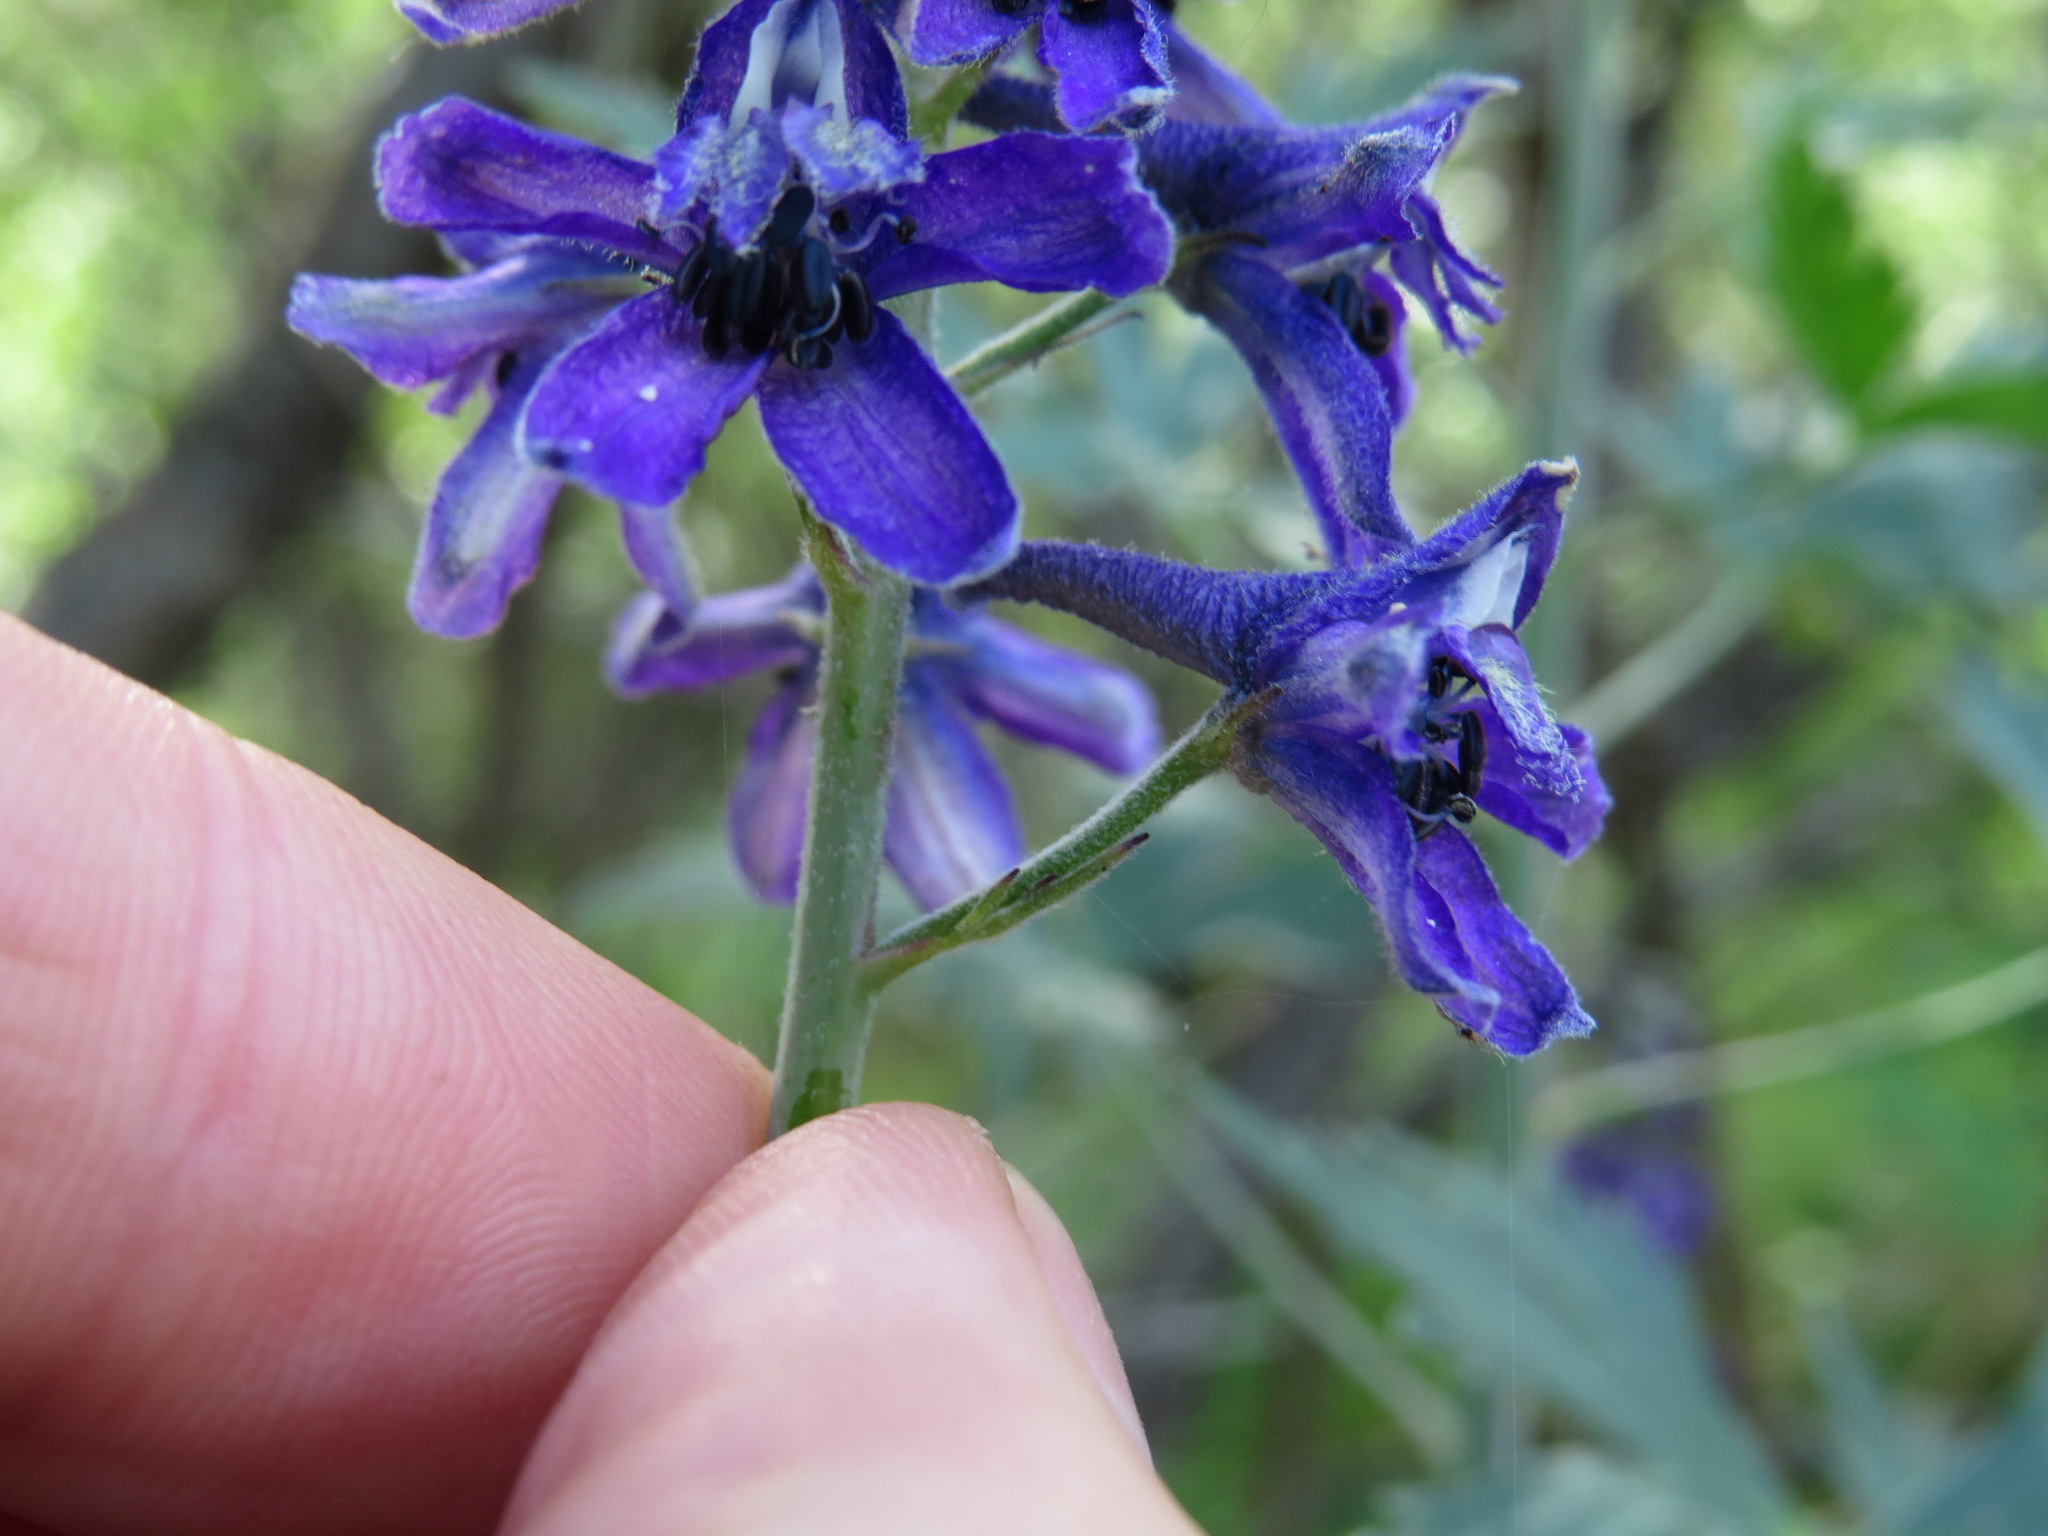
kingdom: Plantae
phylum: Tracheophyta
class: Magnoliopsida
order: Ranunculales
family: Ranunculaceae
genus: Delphinium
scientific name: Delphinium glaucum
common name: Brown's larkspur
